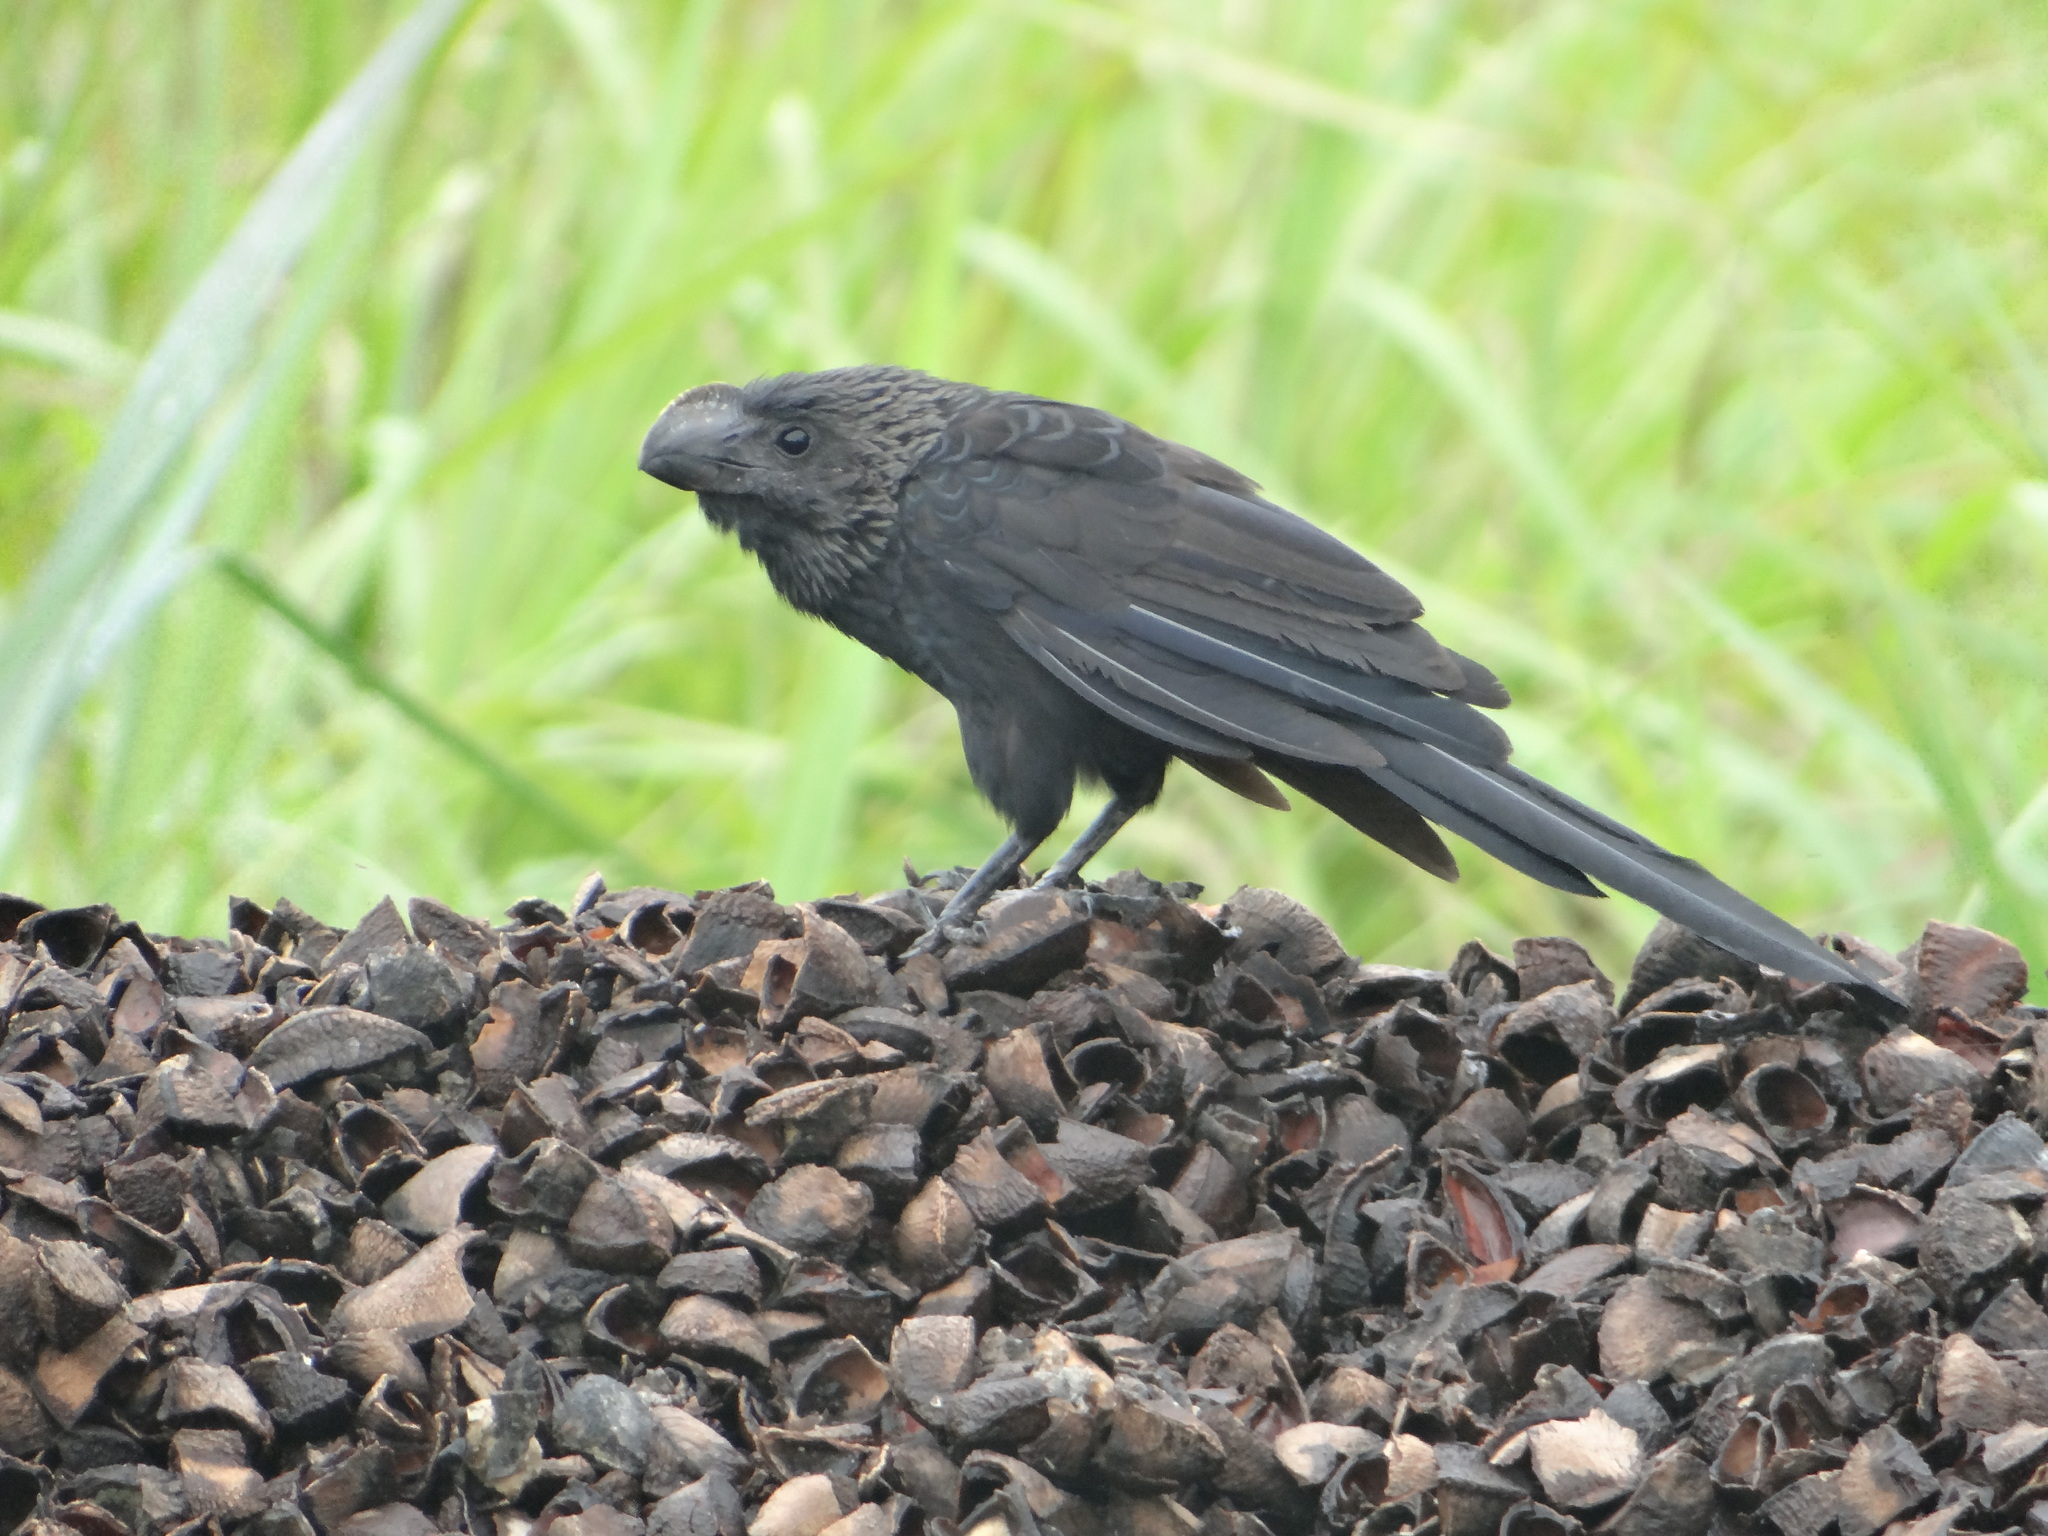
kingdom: Animalia
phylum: Chordata
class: Aves
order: Cuculiformes
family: Cuculidae
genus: Crotophaga
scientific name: Crotophaga ani
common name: Smooth-billed ani
